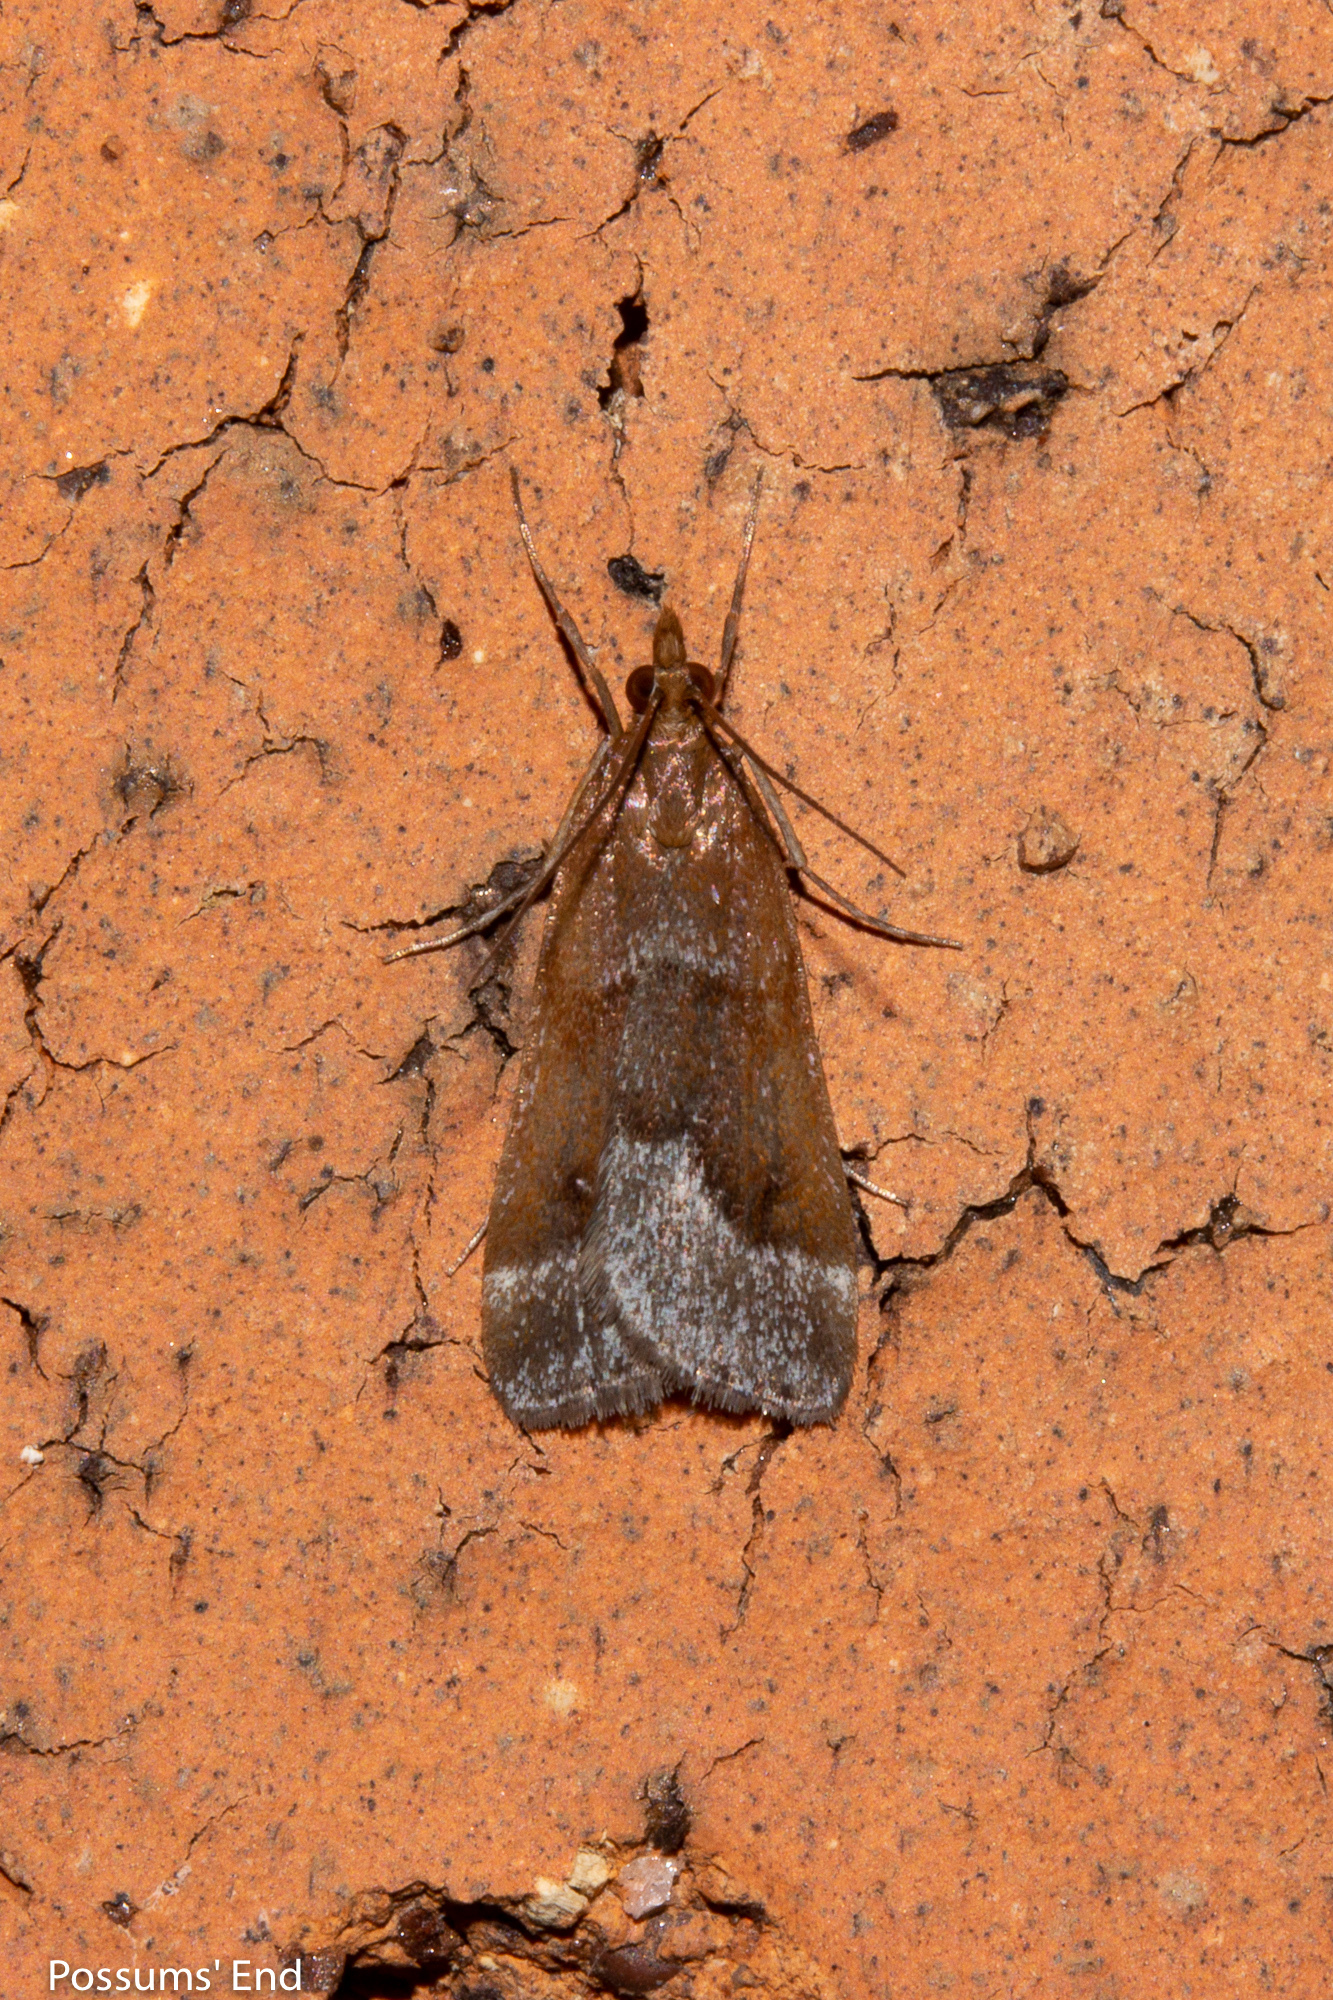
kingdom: Animalia
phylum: Arthropoda
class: Insecta
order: Lepidoptera
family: Crambidae
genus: Eudonia
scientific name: Eudonia feredayi
